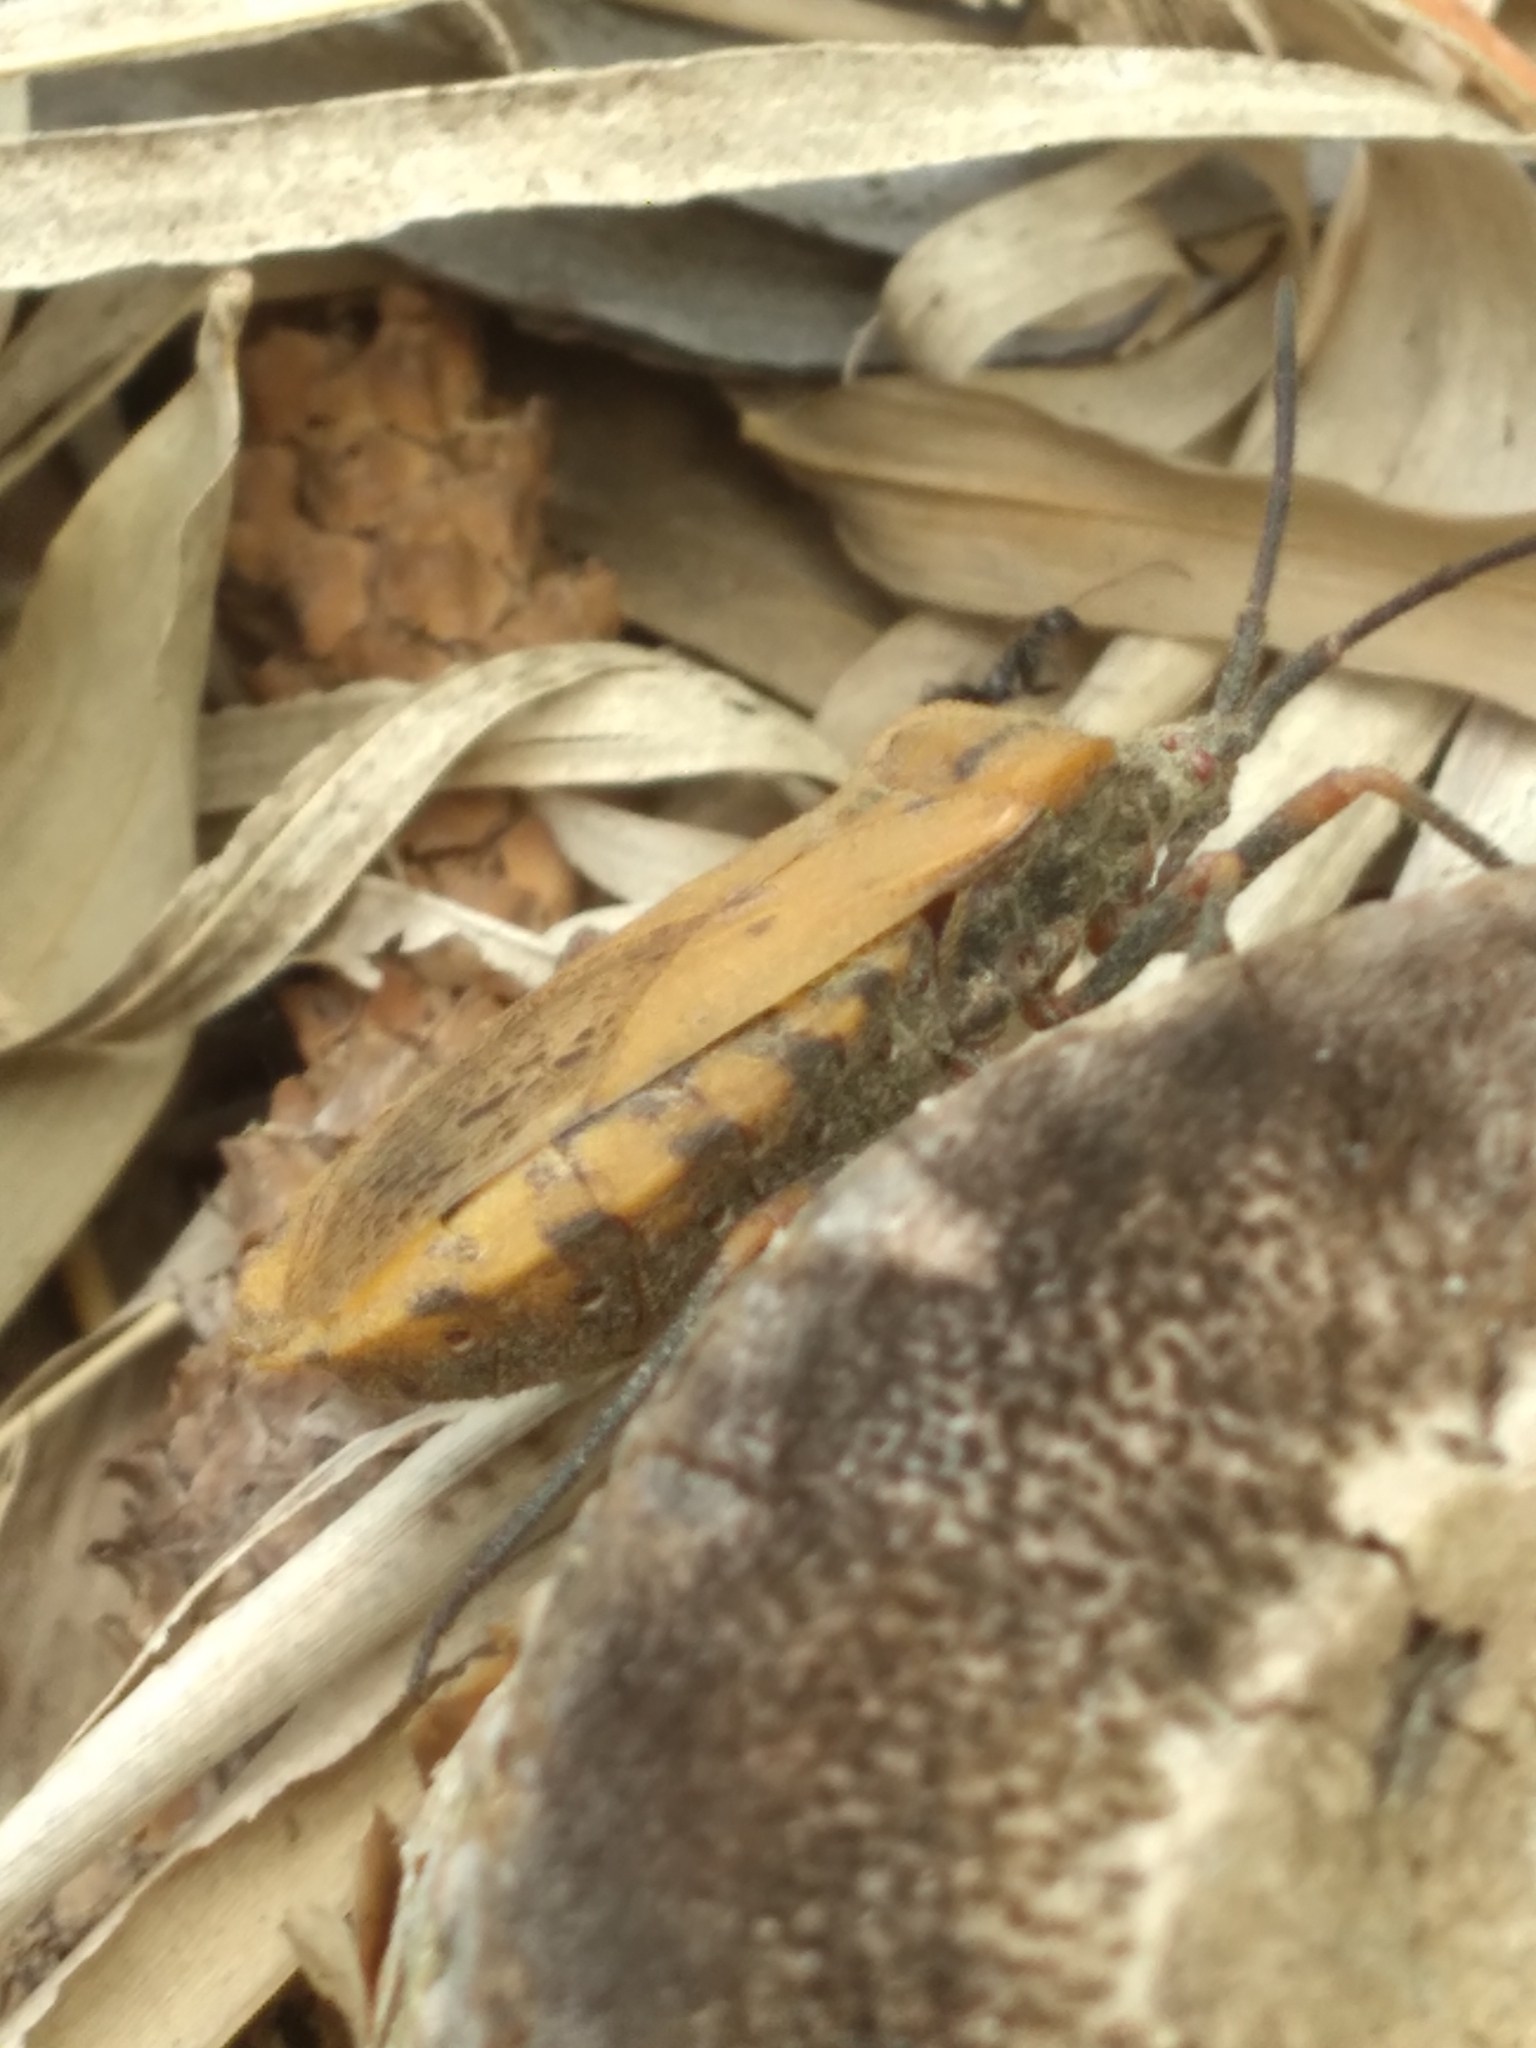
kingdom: Animalia
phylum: Arthropoda
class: Insecta
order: Hemiptera
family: Coreidae
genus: Spartocera
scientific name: Spartocera fusca
